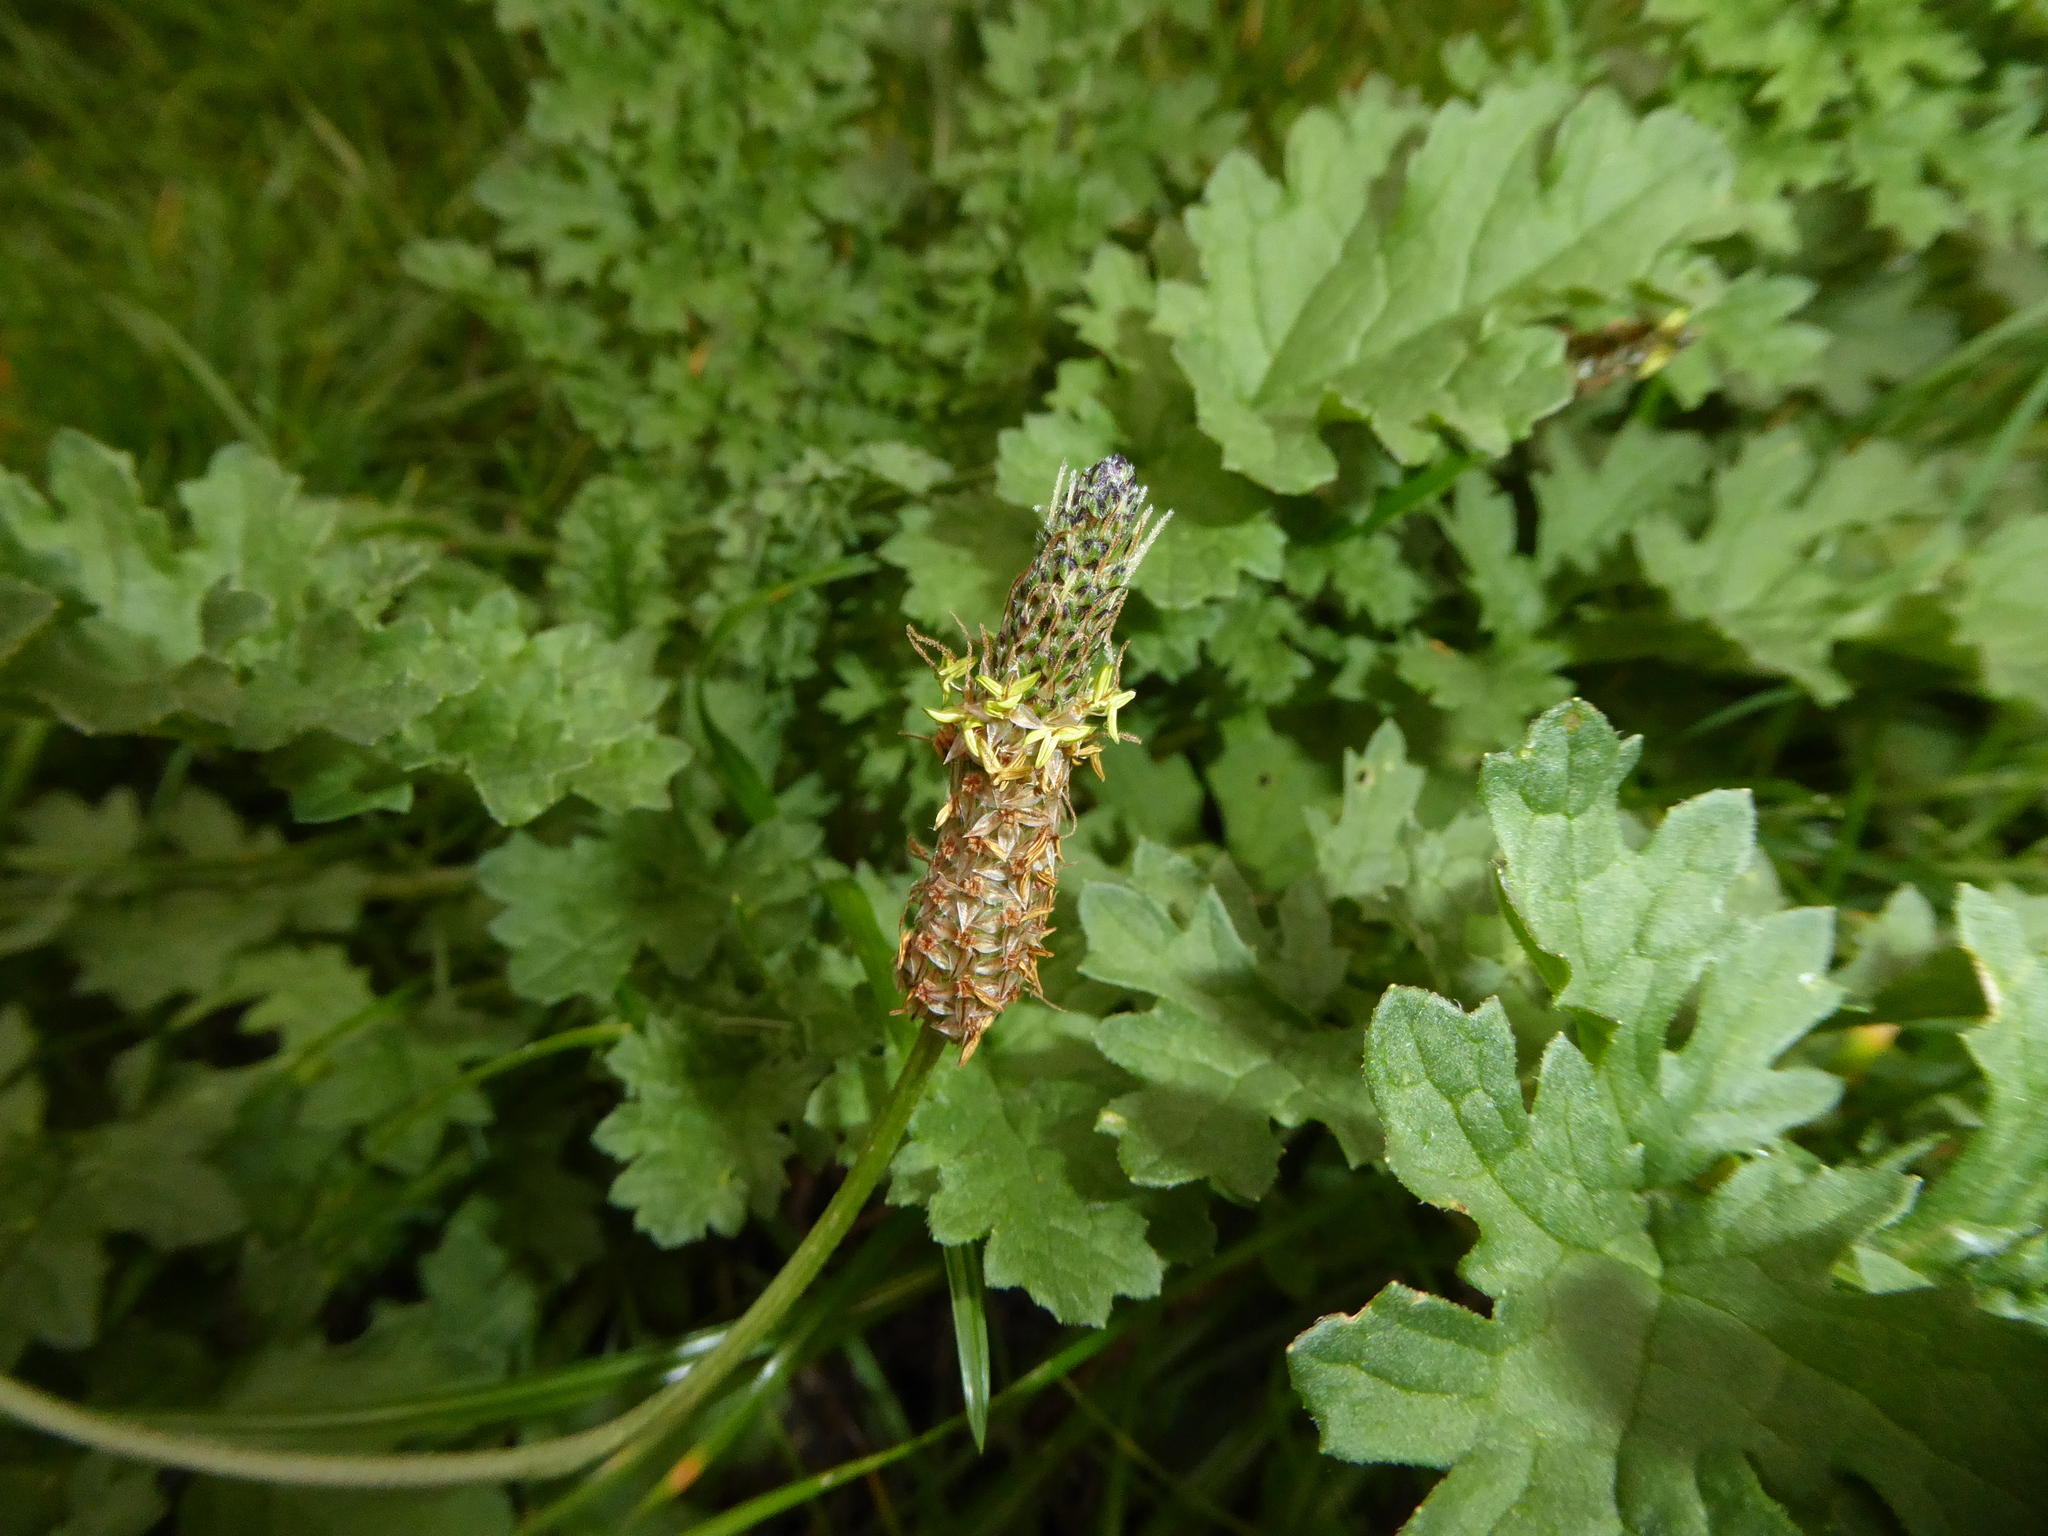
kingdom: Plantae
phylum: Tracheophyta
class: Magnoliopsida
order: Lamiales
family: Plantaginaceae
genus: Plantago
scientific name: Plantago lanceolata
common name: Ribwort plantain
